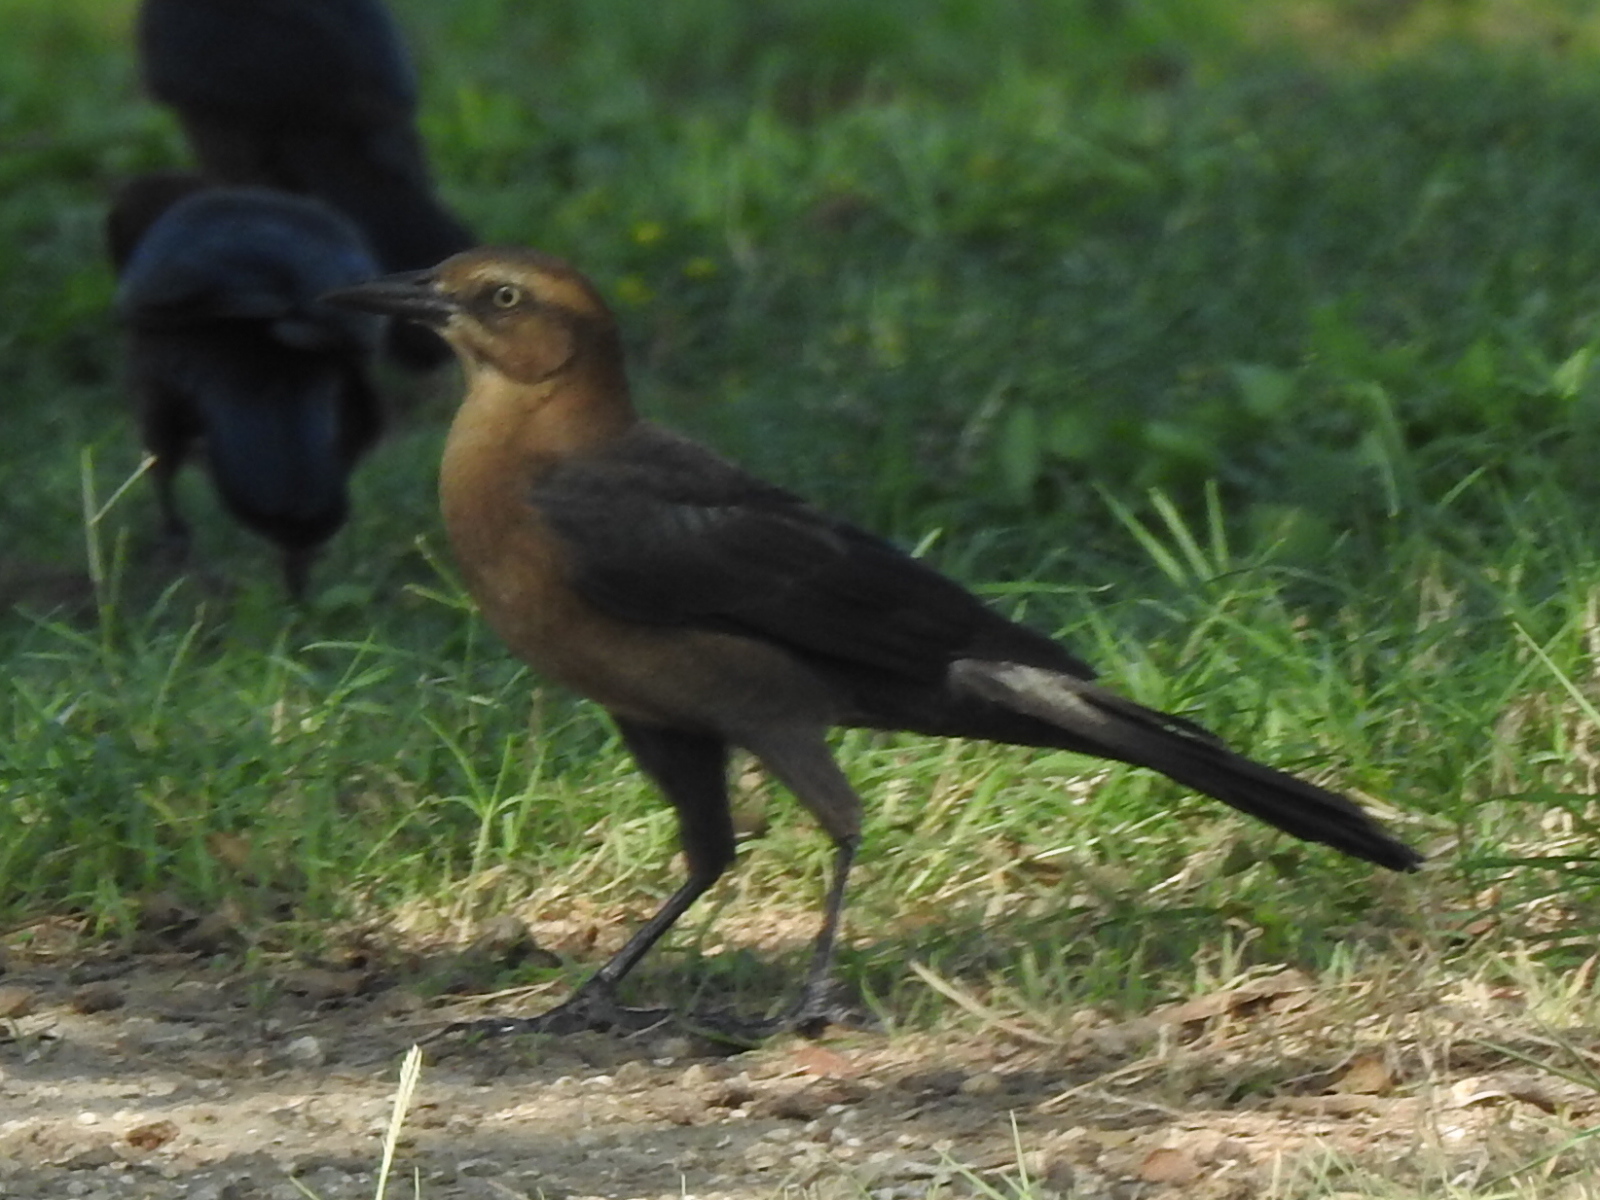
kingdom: Animalia
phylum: Chordata
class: Aves
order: Passeriformes
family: Icteridae
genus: Quiscalus
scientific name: Quiscalus mexicanus
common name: Great-tailed grackle
